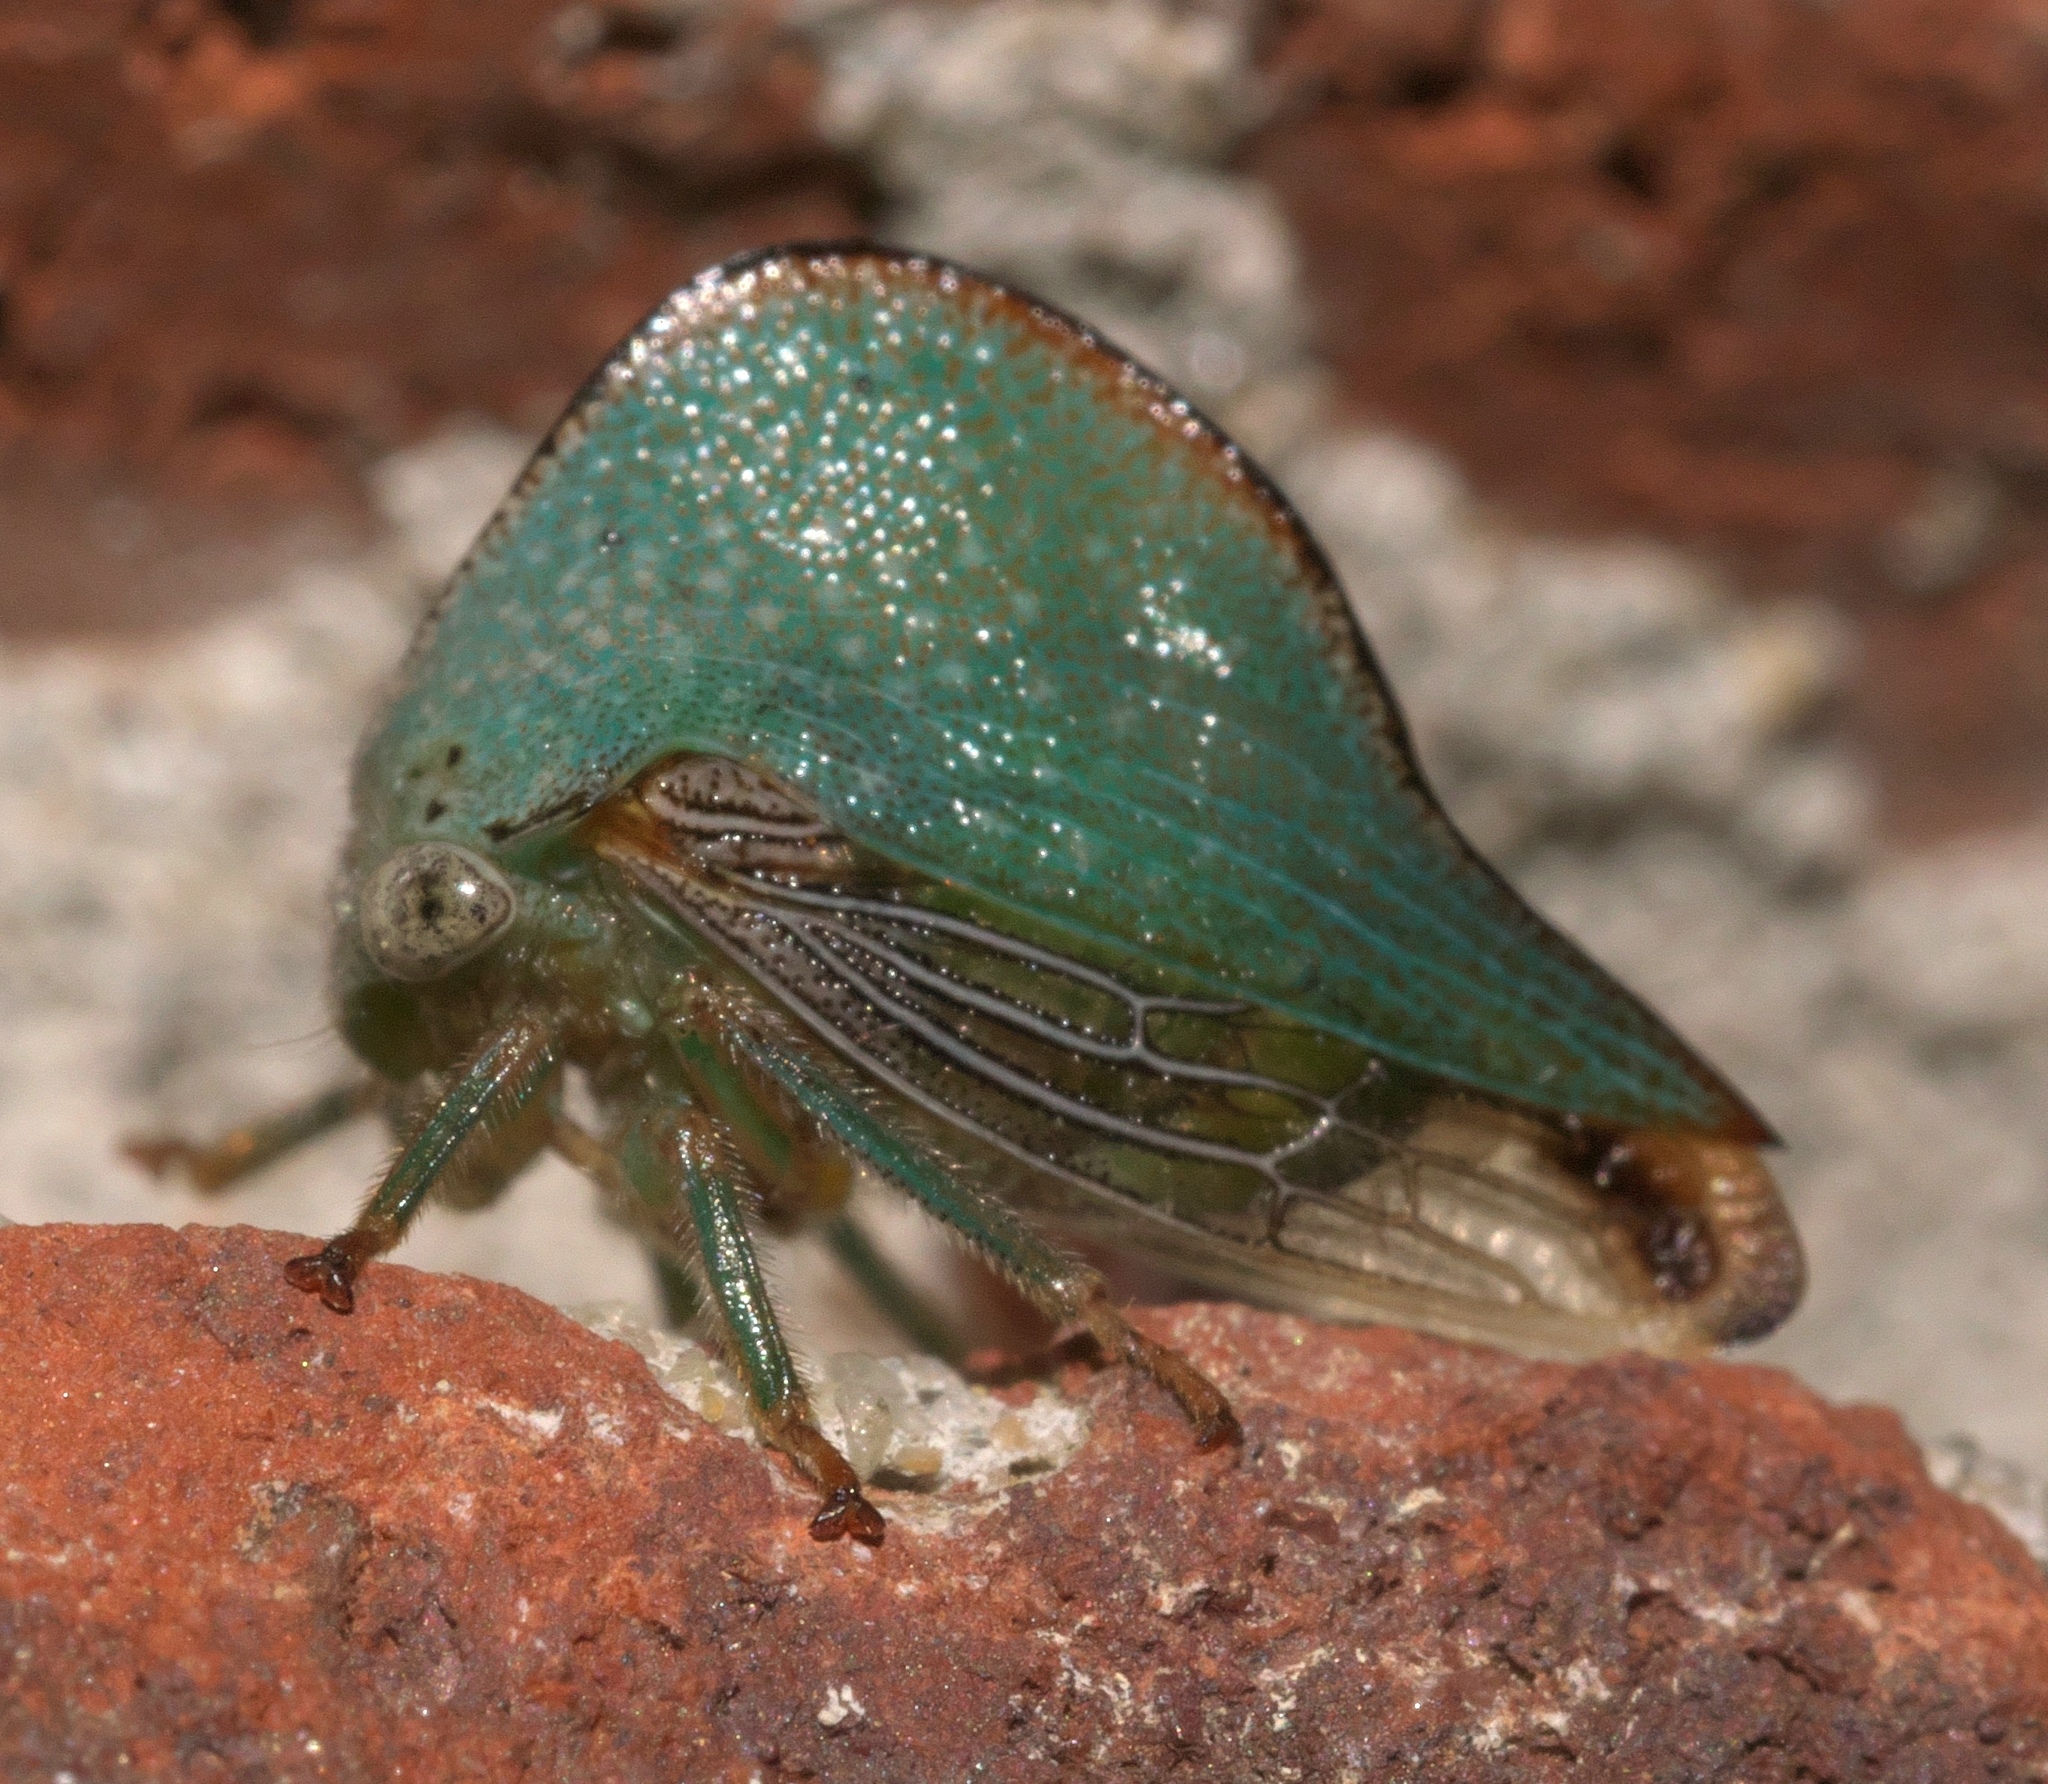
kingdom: Animalia
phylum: Arthropoda
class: Insecta
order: Hemiptera
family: Membracidae
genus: Archasia
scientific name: Archasia pallida
